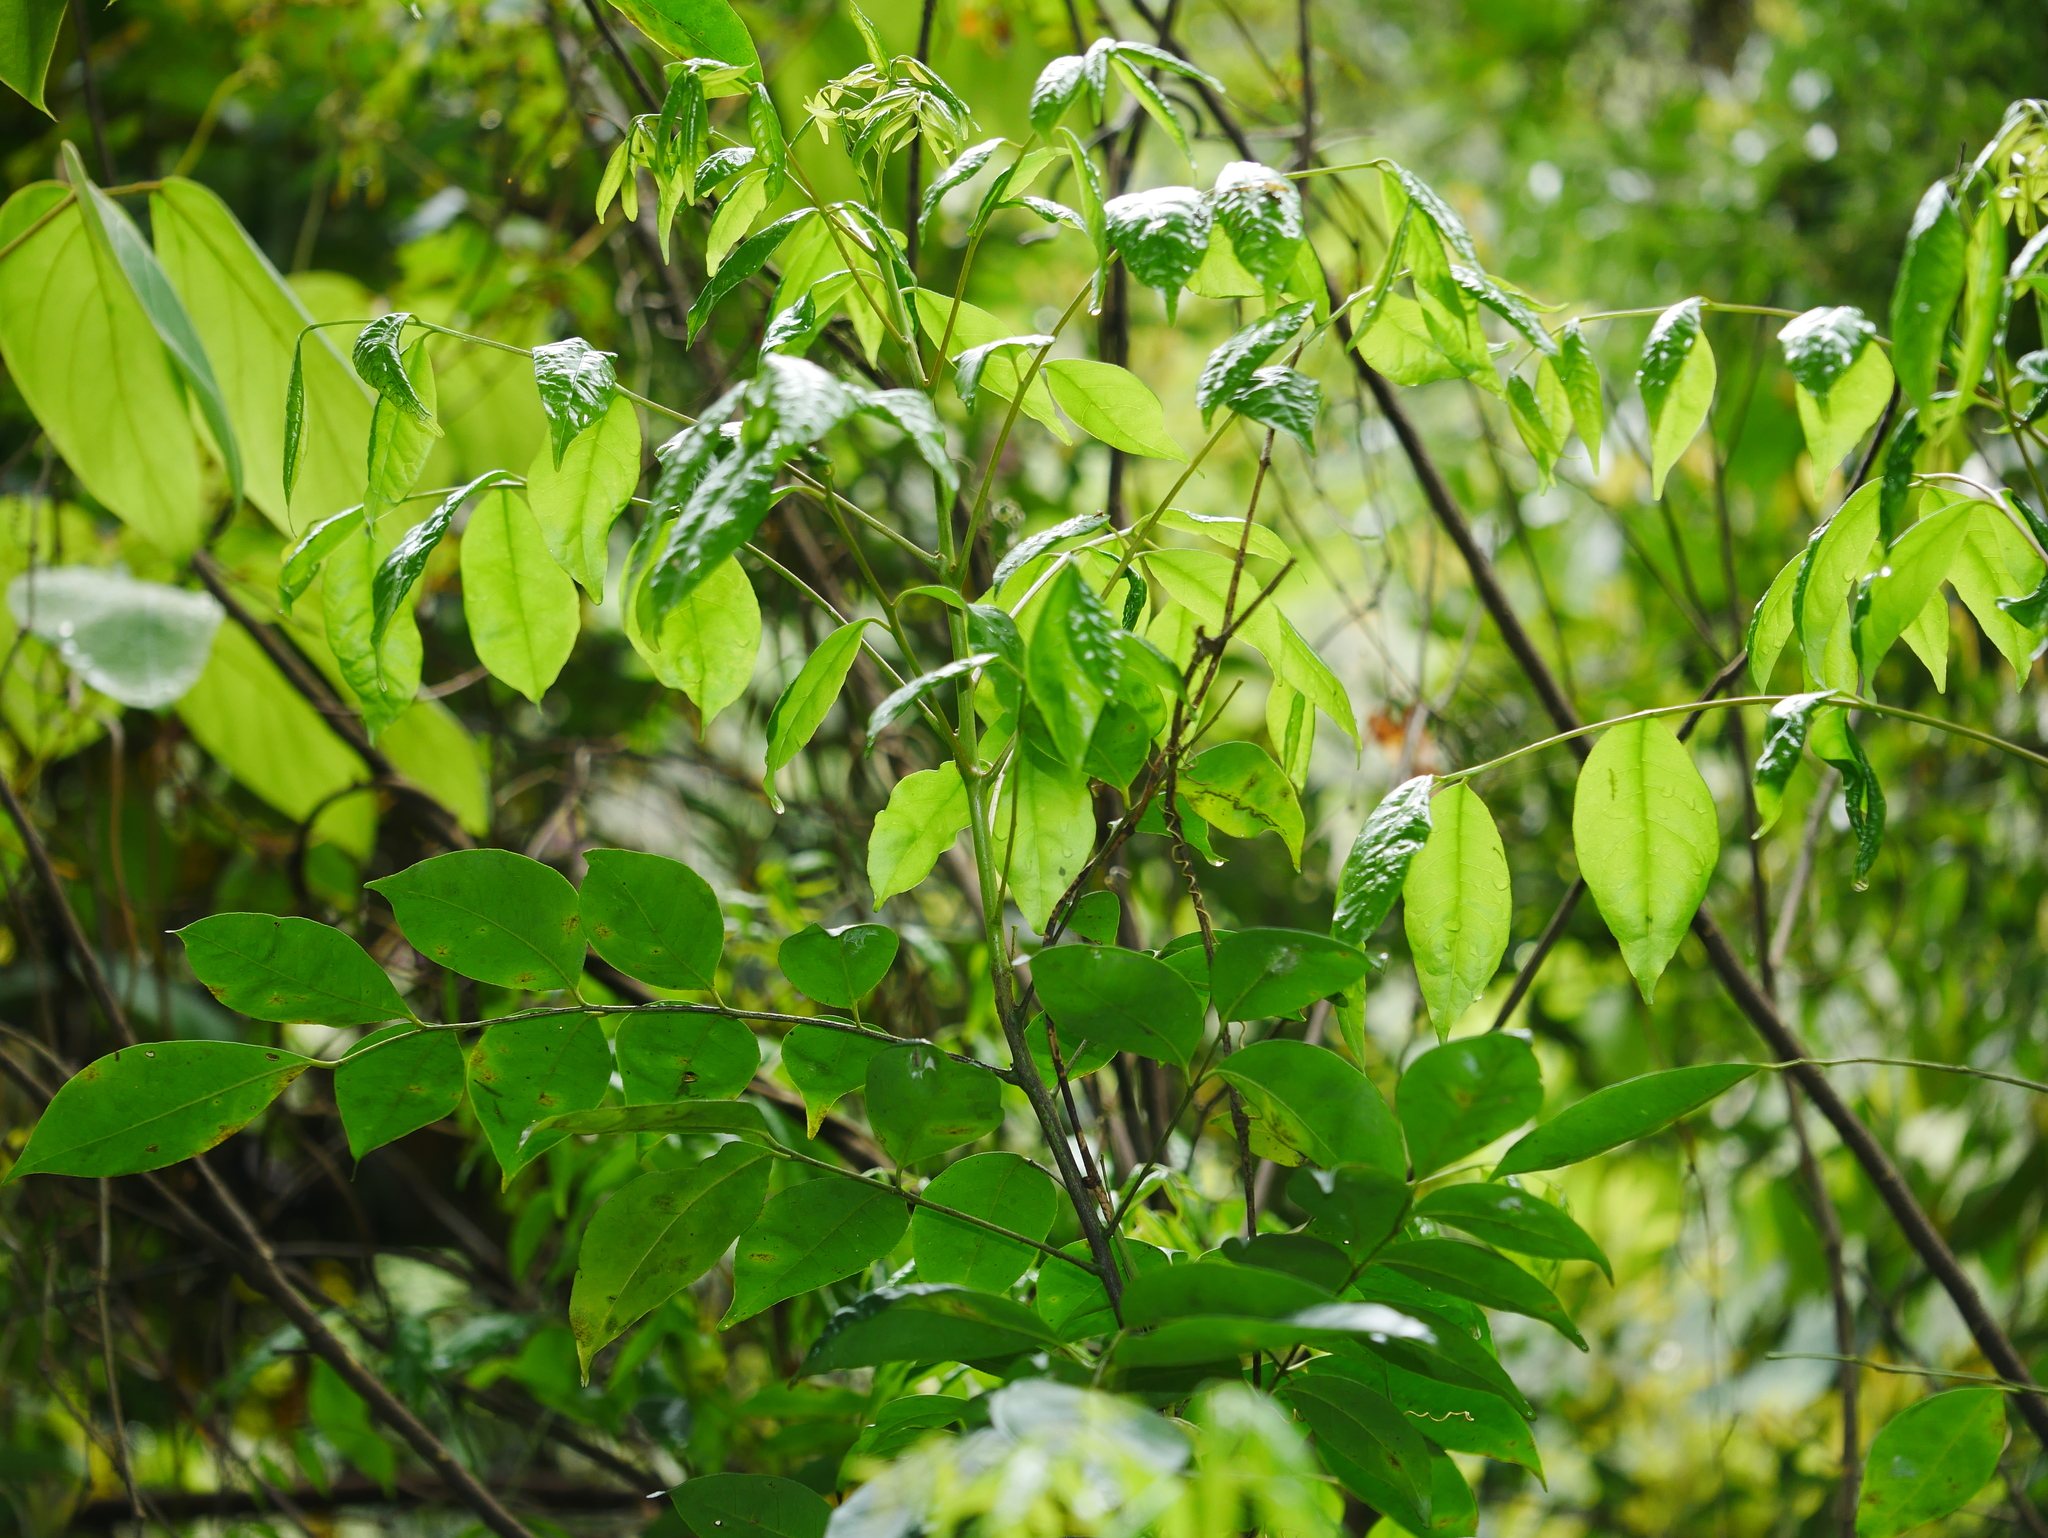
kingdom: Plantae
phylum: Tracheophyta
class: Magnoliopsida
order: Sapindales
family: Rutaceae
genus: Murraya
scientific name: Murraya euchrestifolia
